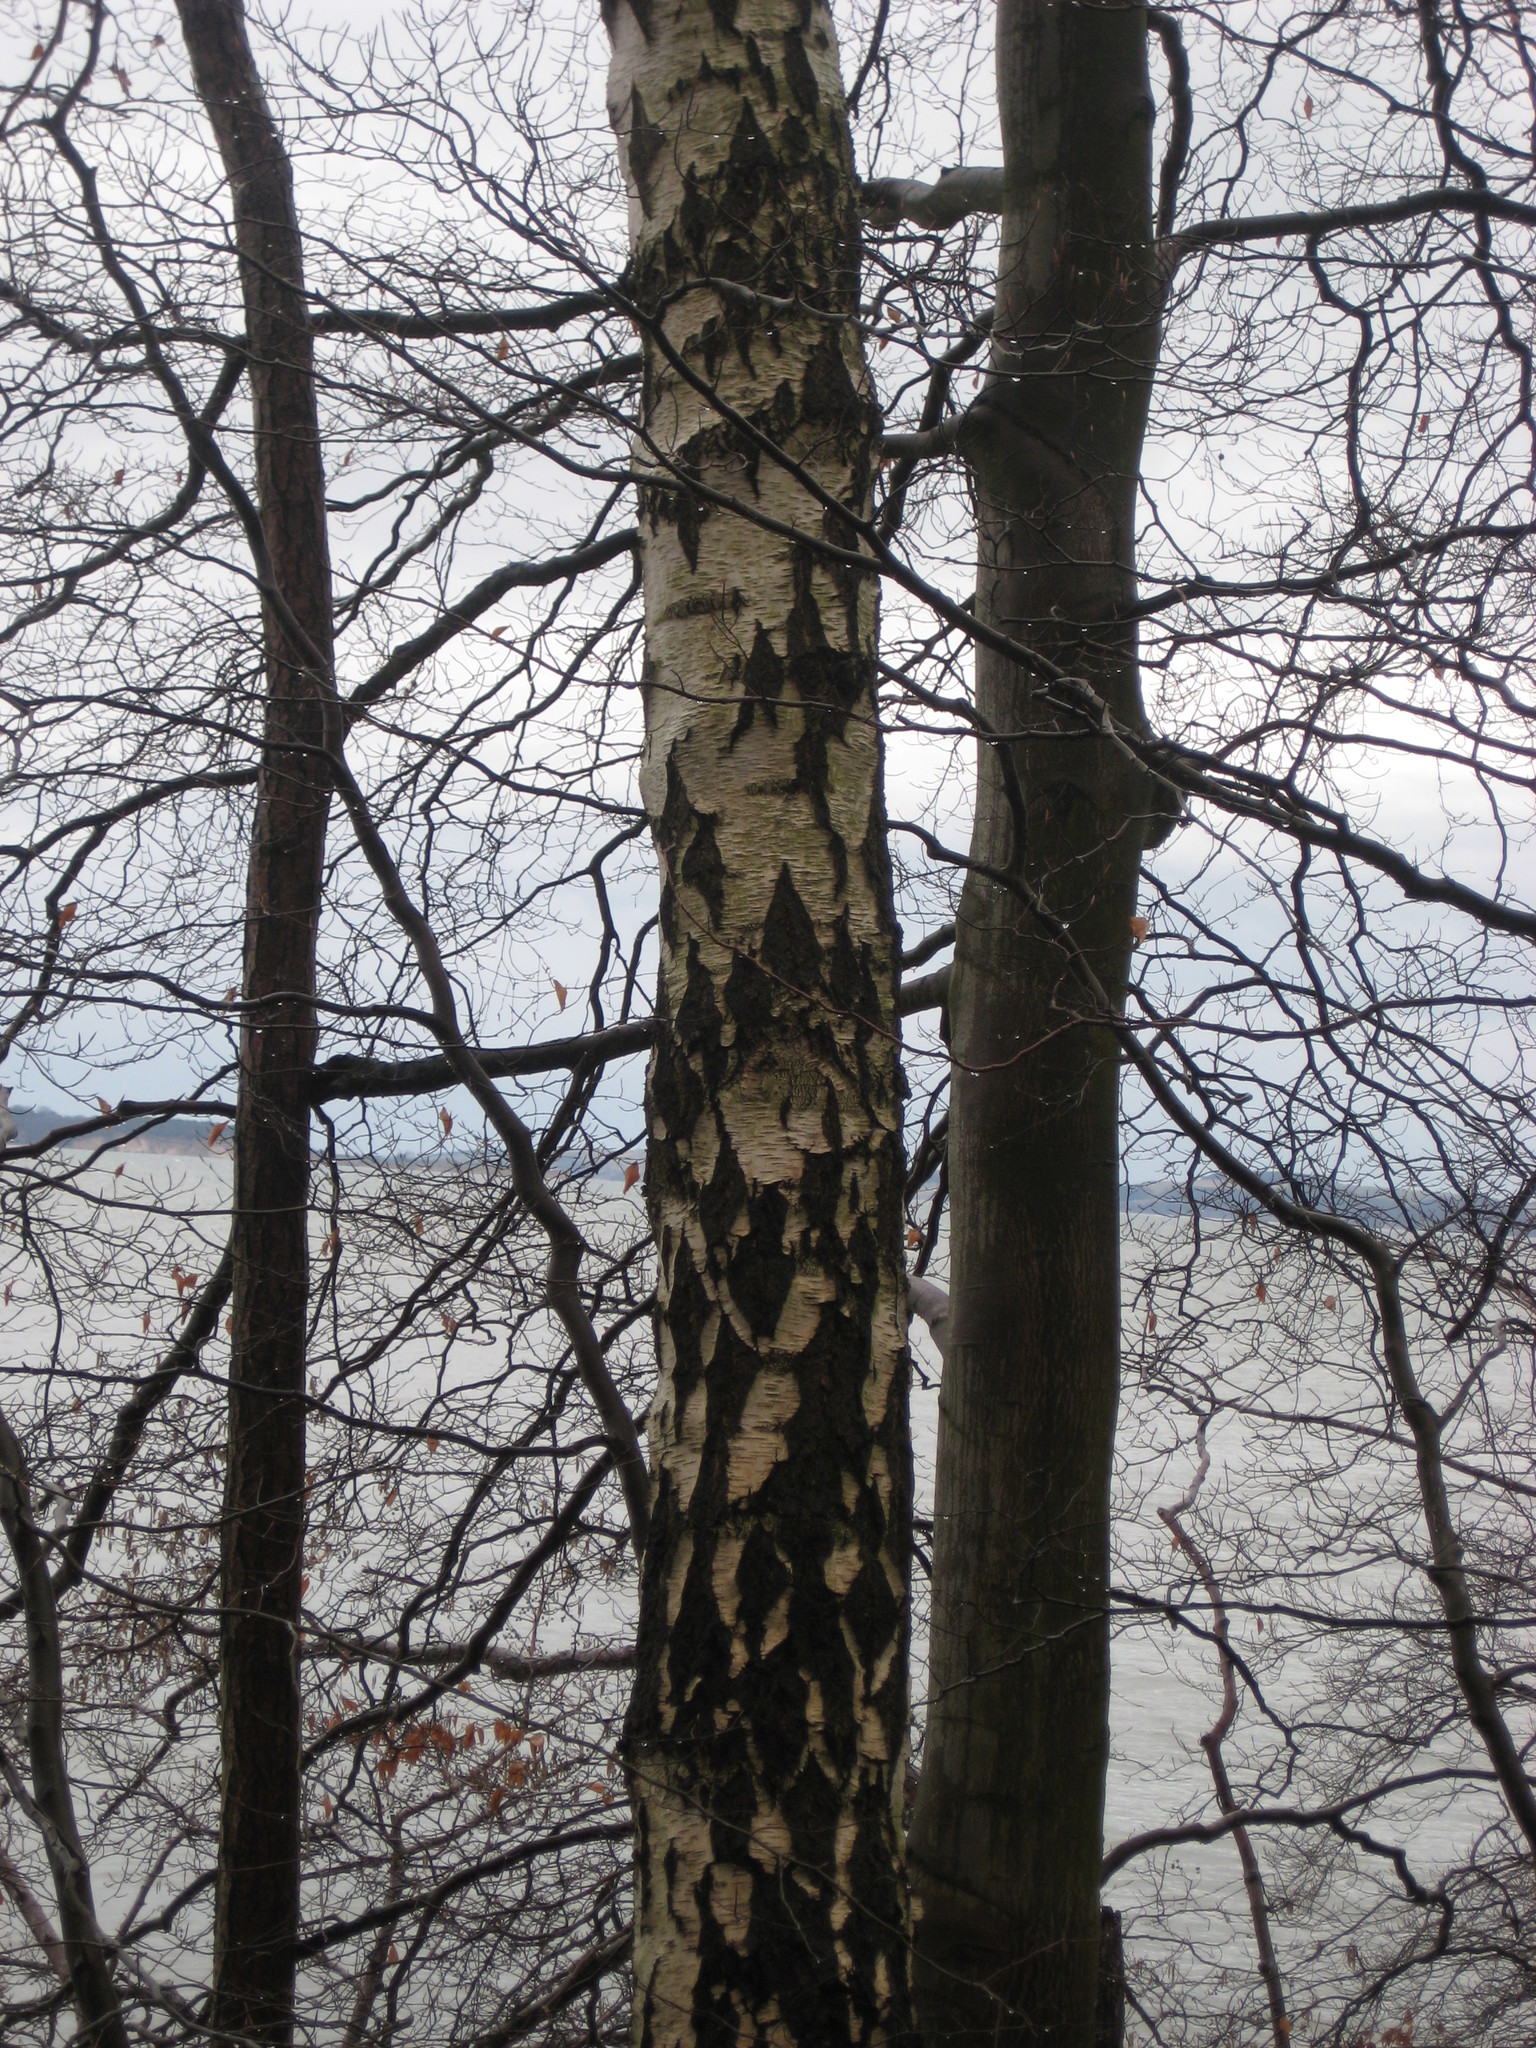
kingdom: Plantae
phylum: Tracheophyta
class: Magnoliopsida
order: Fagales
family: Betulaceae
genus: Betula
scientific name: Betula pendula
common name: Silver birch
